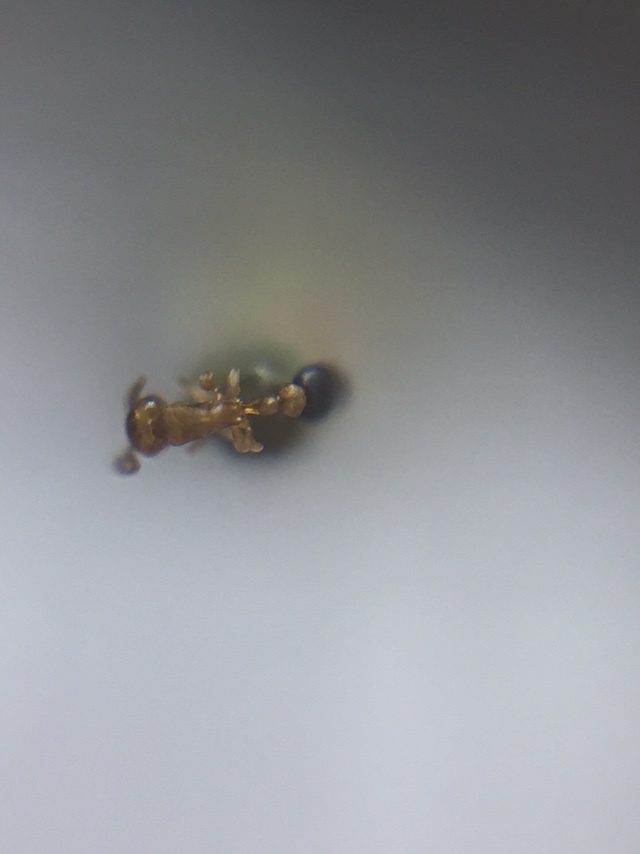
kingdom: Animalia
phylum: Arthropoda
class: Insecta
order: Hymenoptera
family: Formicidae
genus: Cardiocondyla
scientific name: Cardiocondyla minutior
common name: Ant
